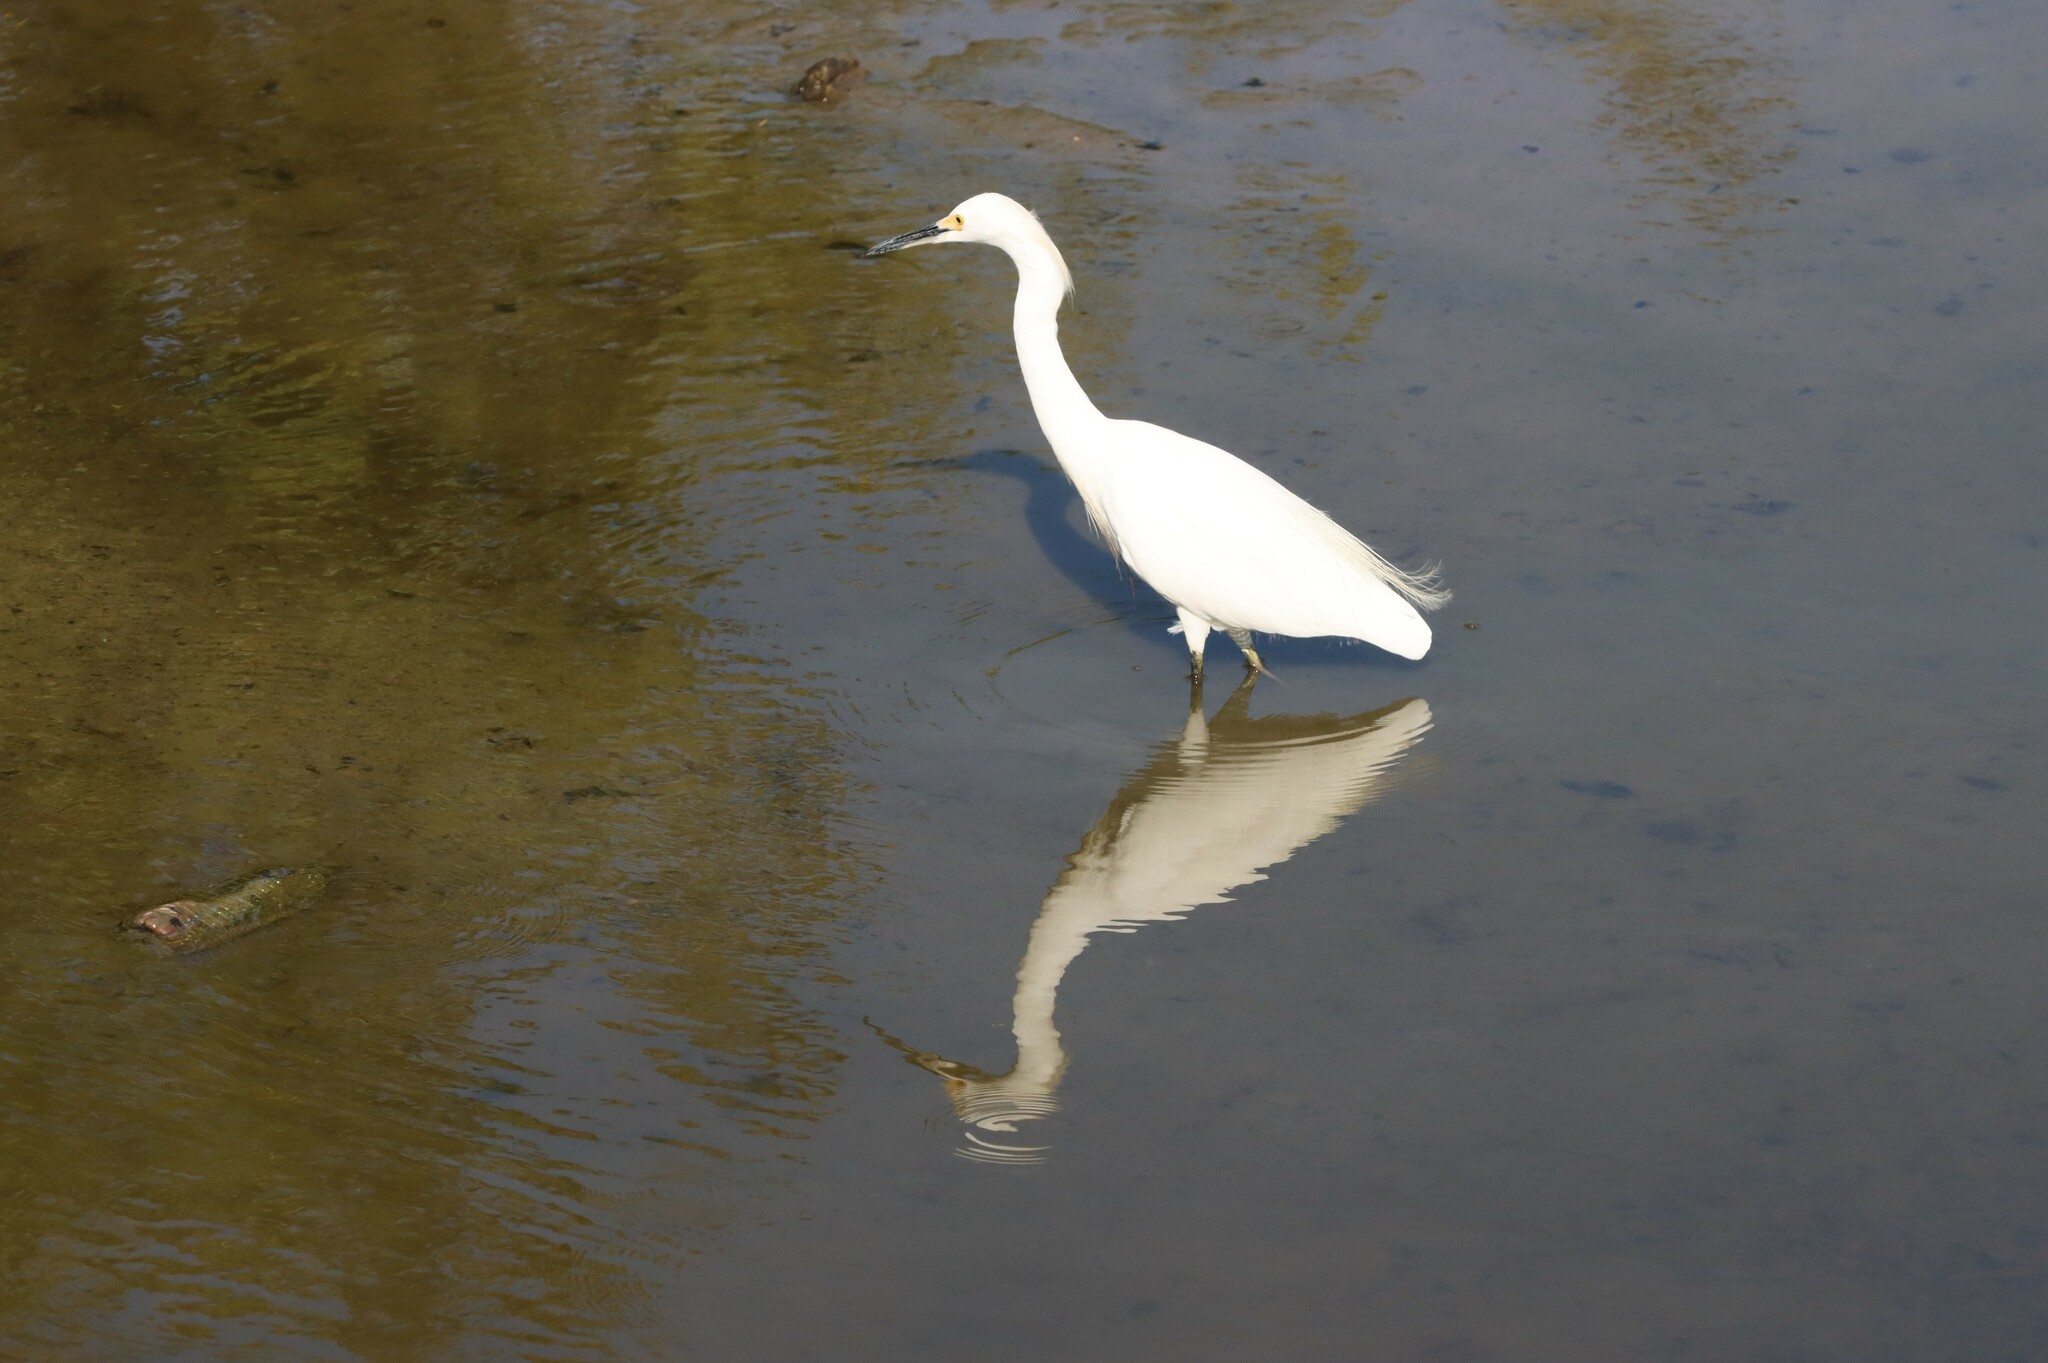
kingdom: Animalia
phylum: Chordata
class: Aves
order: Pelecaniformes
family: Ardeidae
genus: Egretta
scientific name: Egretta thula
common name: Snowy egret
